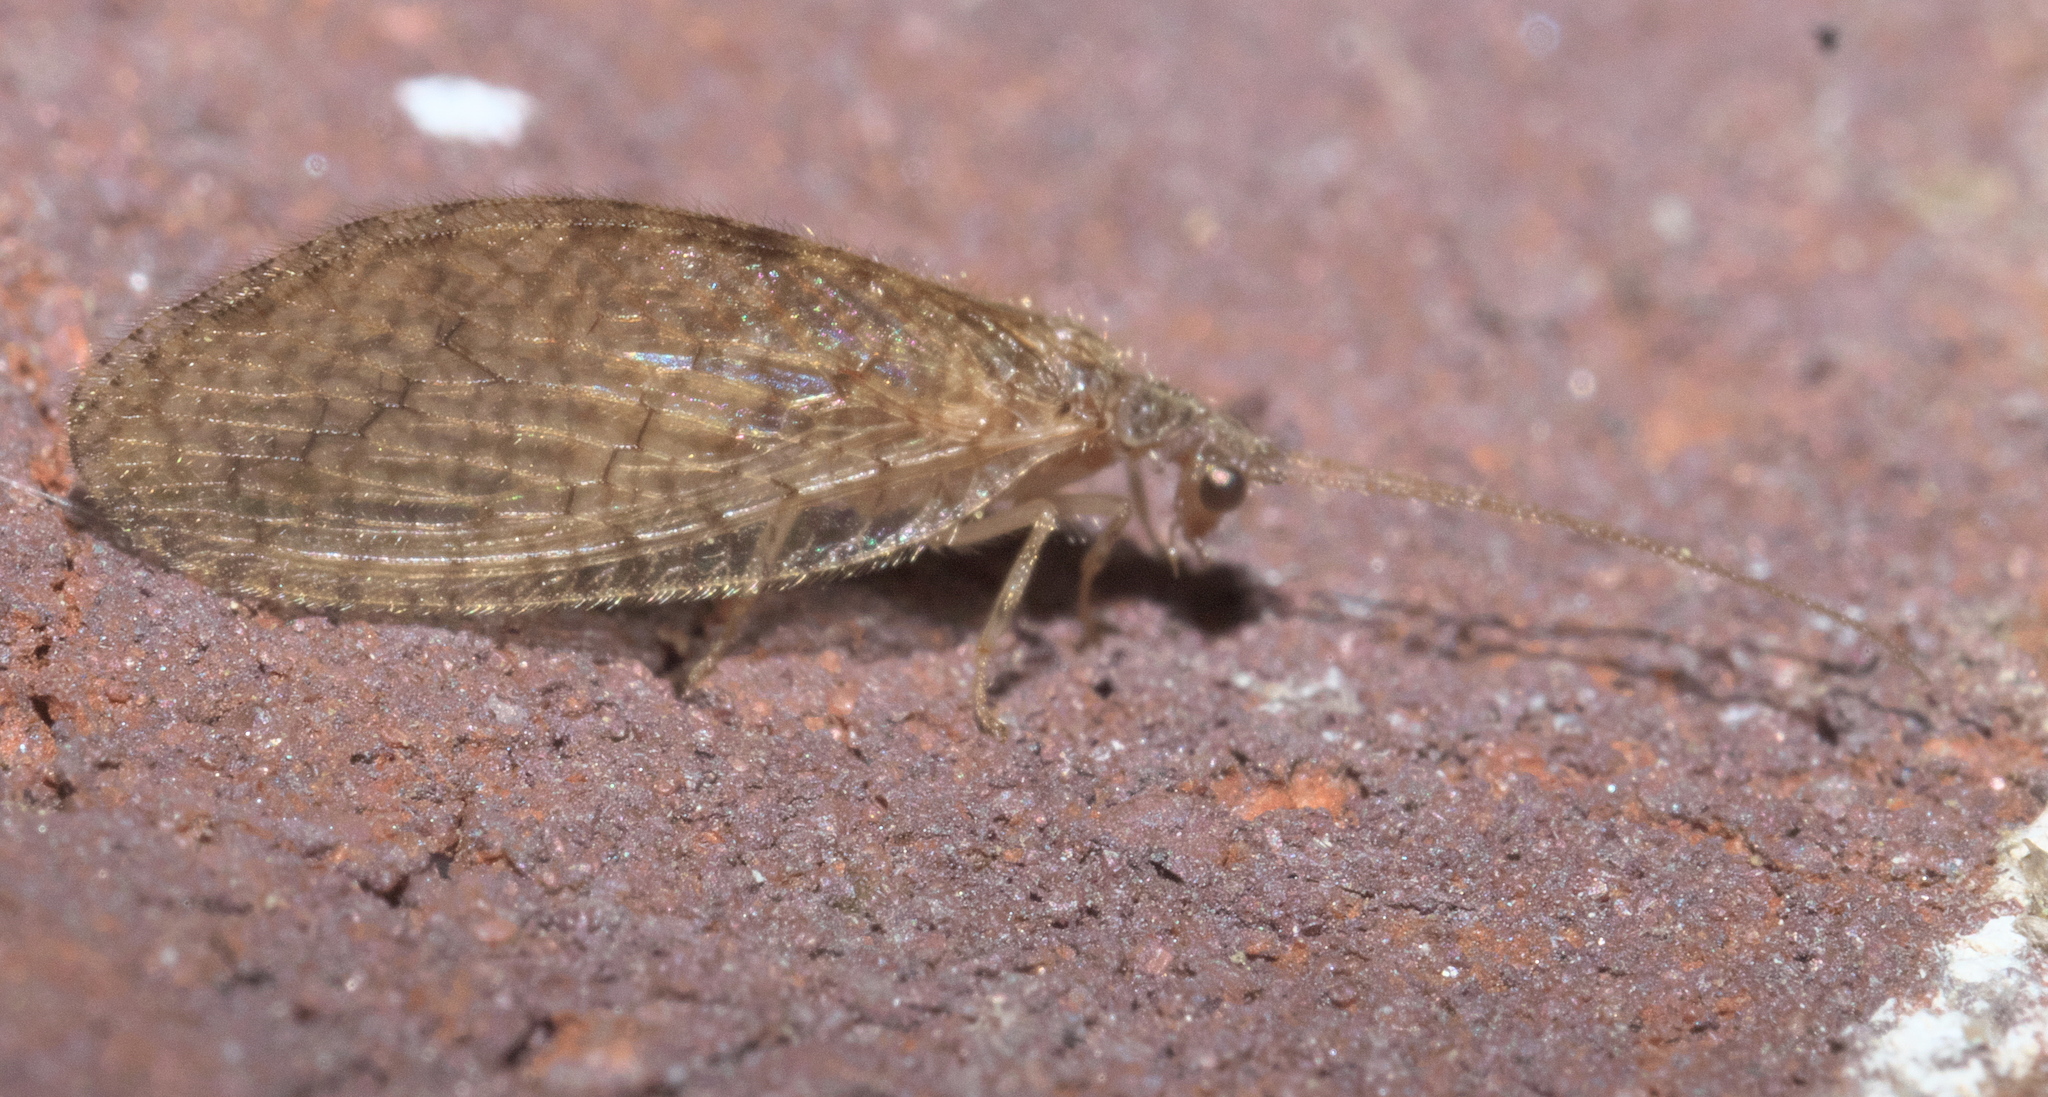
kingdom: Animalia
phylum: Arthropoda
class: Insecta
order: Neuroptera
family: Hemerobiidae
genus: Micromus
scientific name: Micromus posticus
